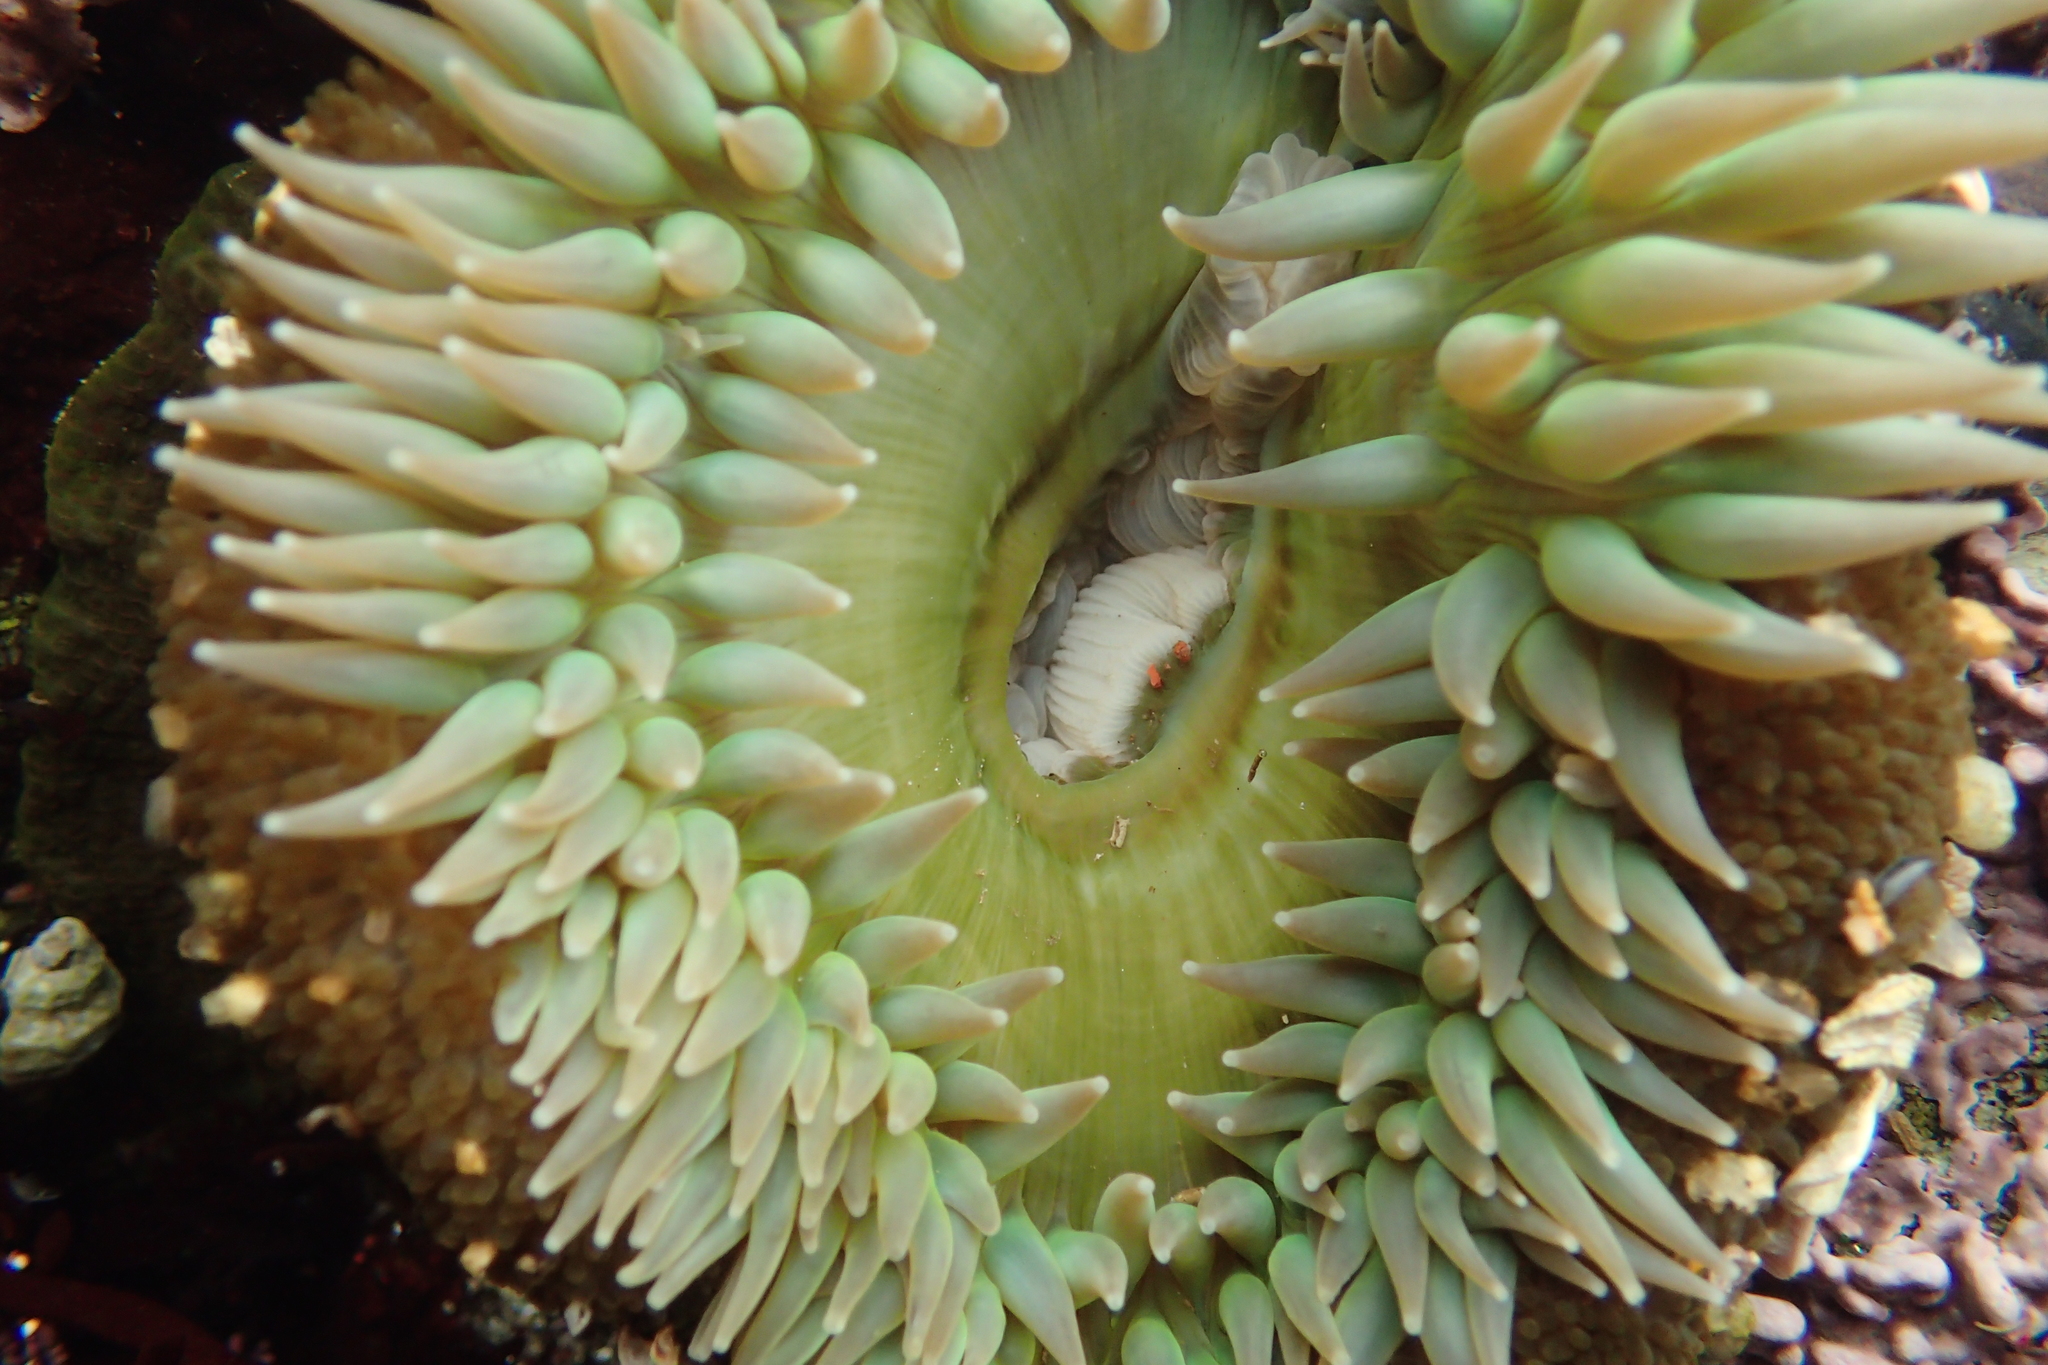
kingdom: Animalia
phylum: Cnidaria
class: Anthozoa
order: Actiniaria
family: Actiniidae
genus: Anthopleura
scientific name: Anthopleura xanthogrammica
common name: Giant green anemone
